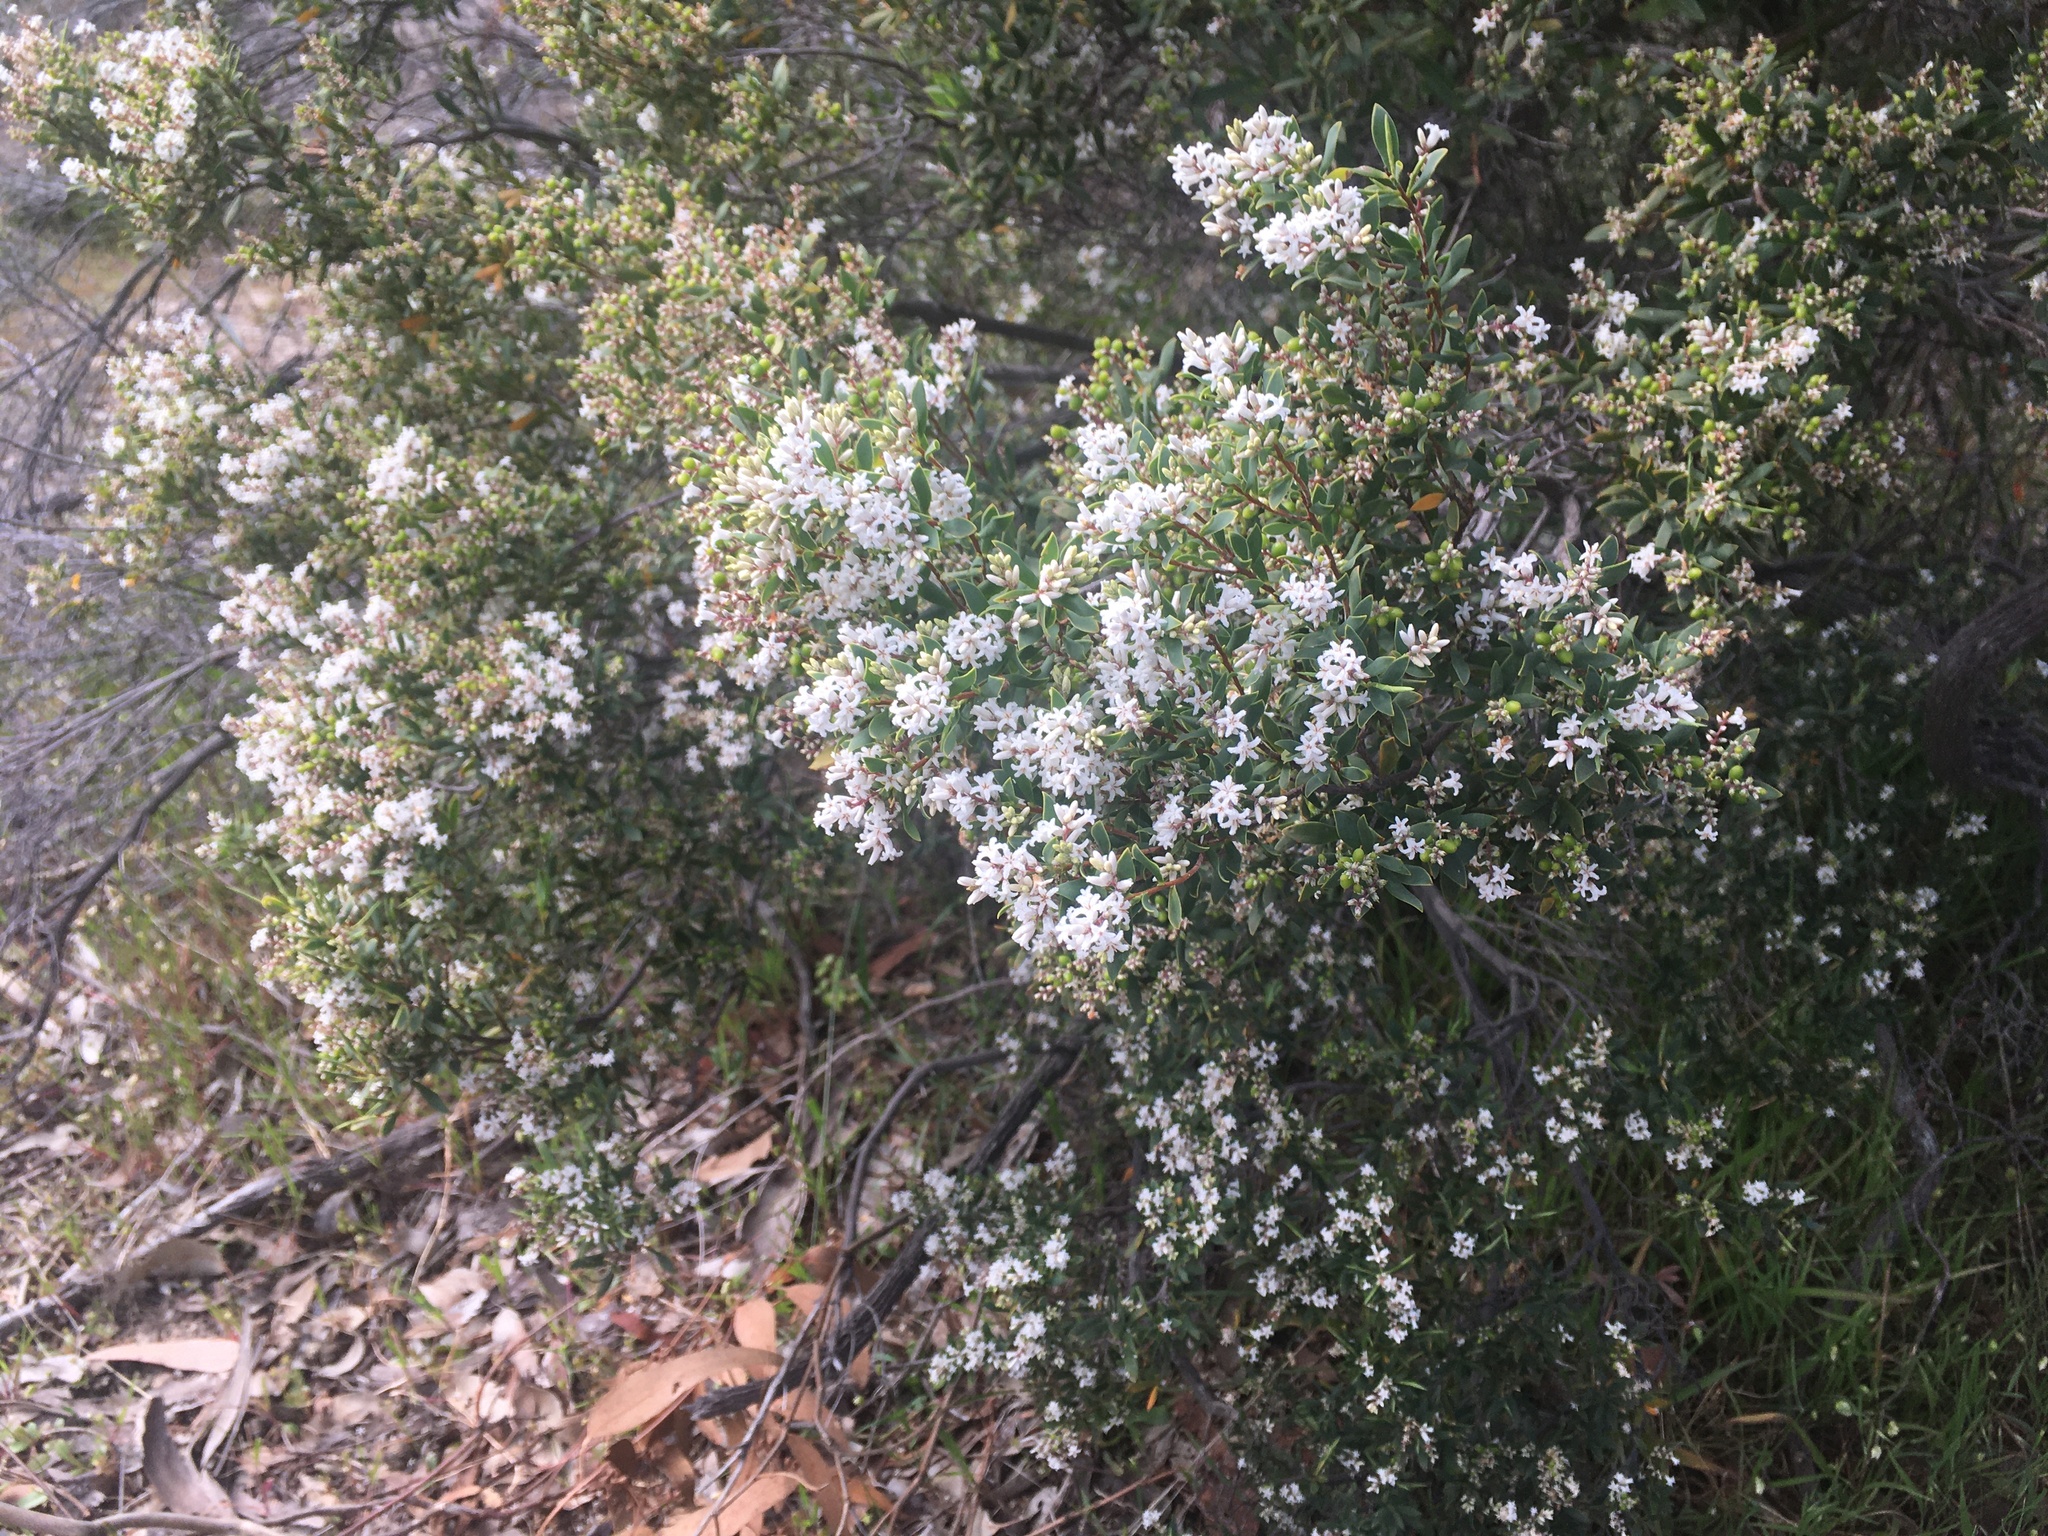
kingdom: Plantae
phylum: Tracheophyta
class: Magnoliopsida
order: Ericales
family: Ericaceae
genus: Leptecophylla
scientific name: Leptecophylla parvifolia
